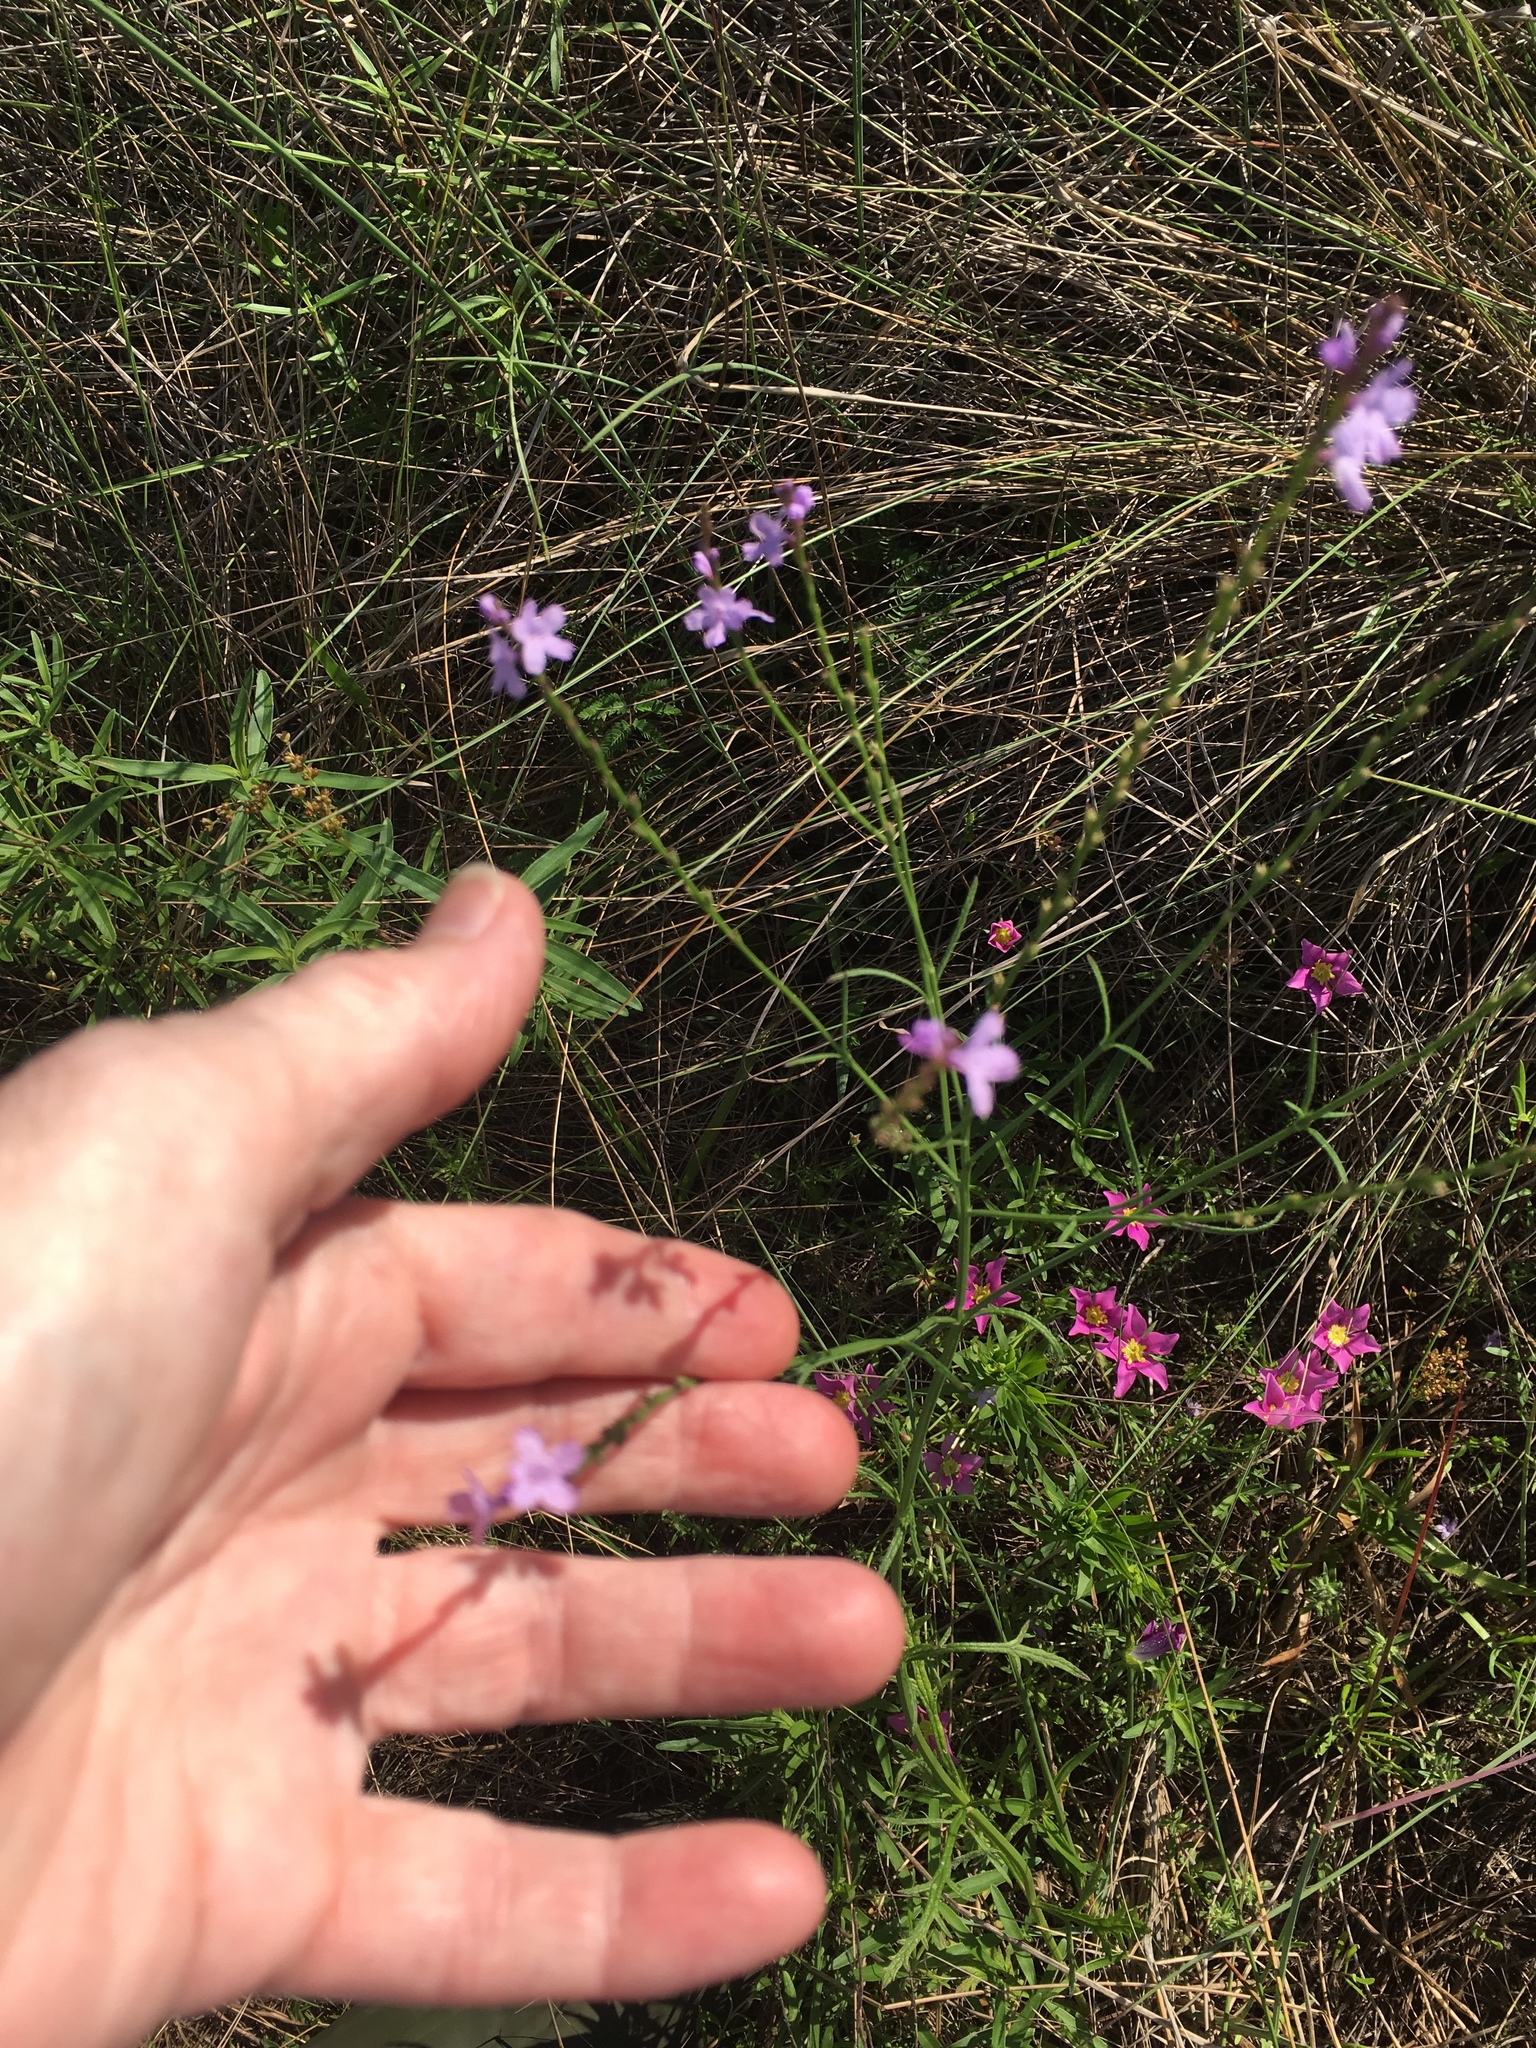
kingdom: Plantae
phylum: Tracheophyta
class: Magnoliopsida
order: Lamiales
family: Verbenaceae
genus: Verbena
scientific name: Verbena halei
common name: Texas vervain
